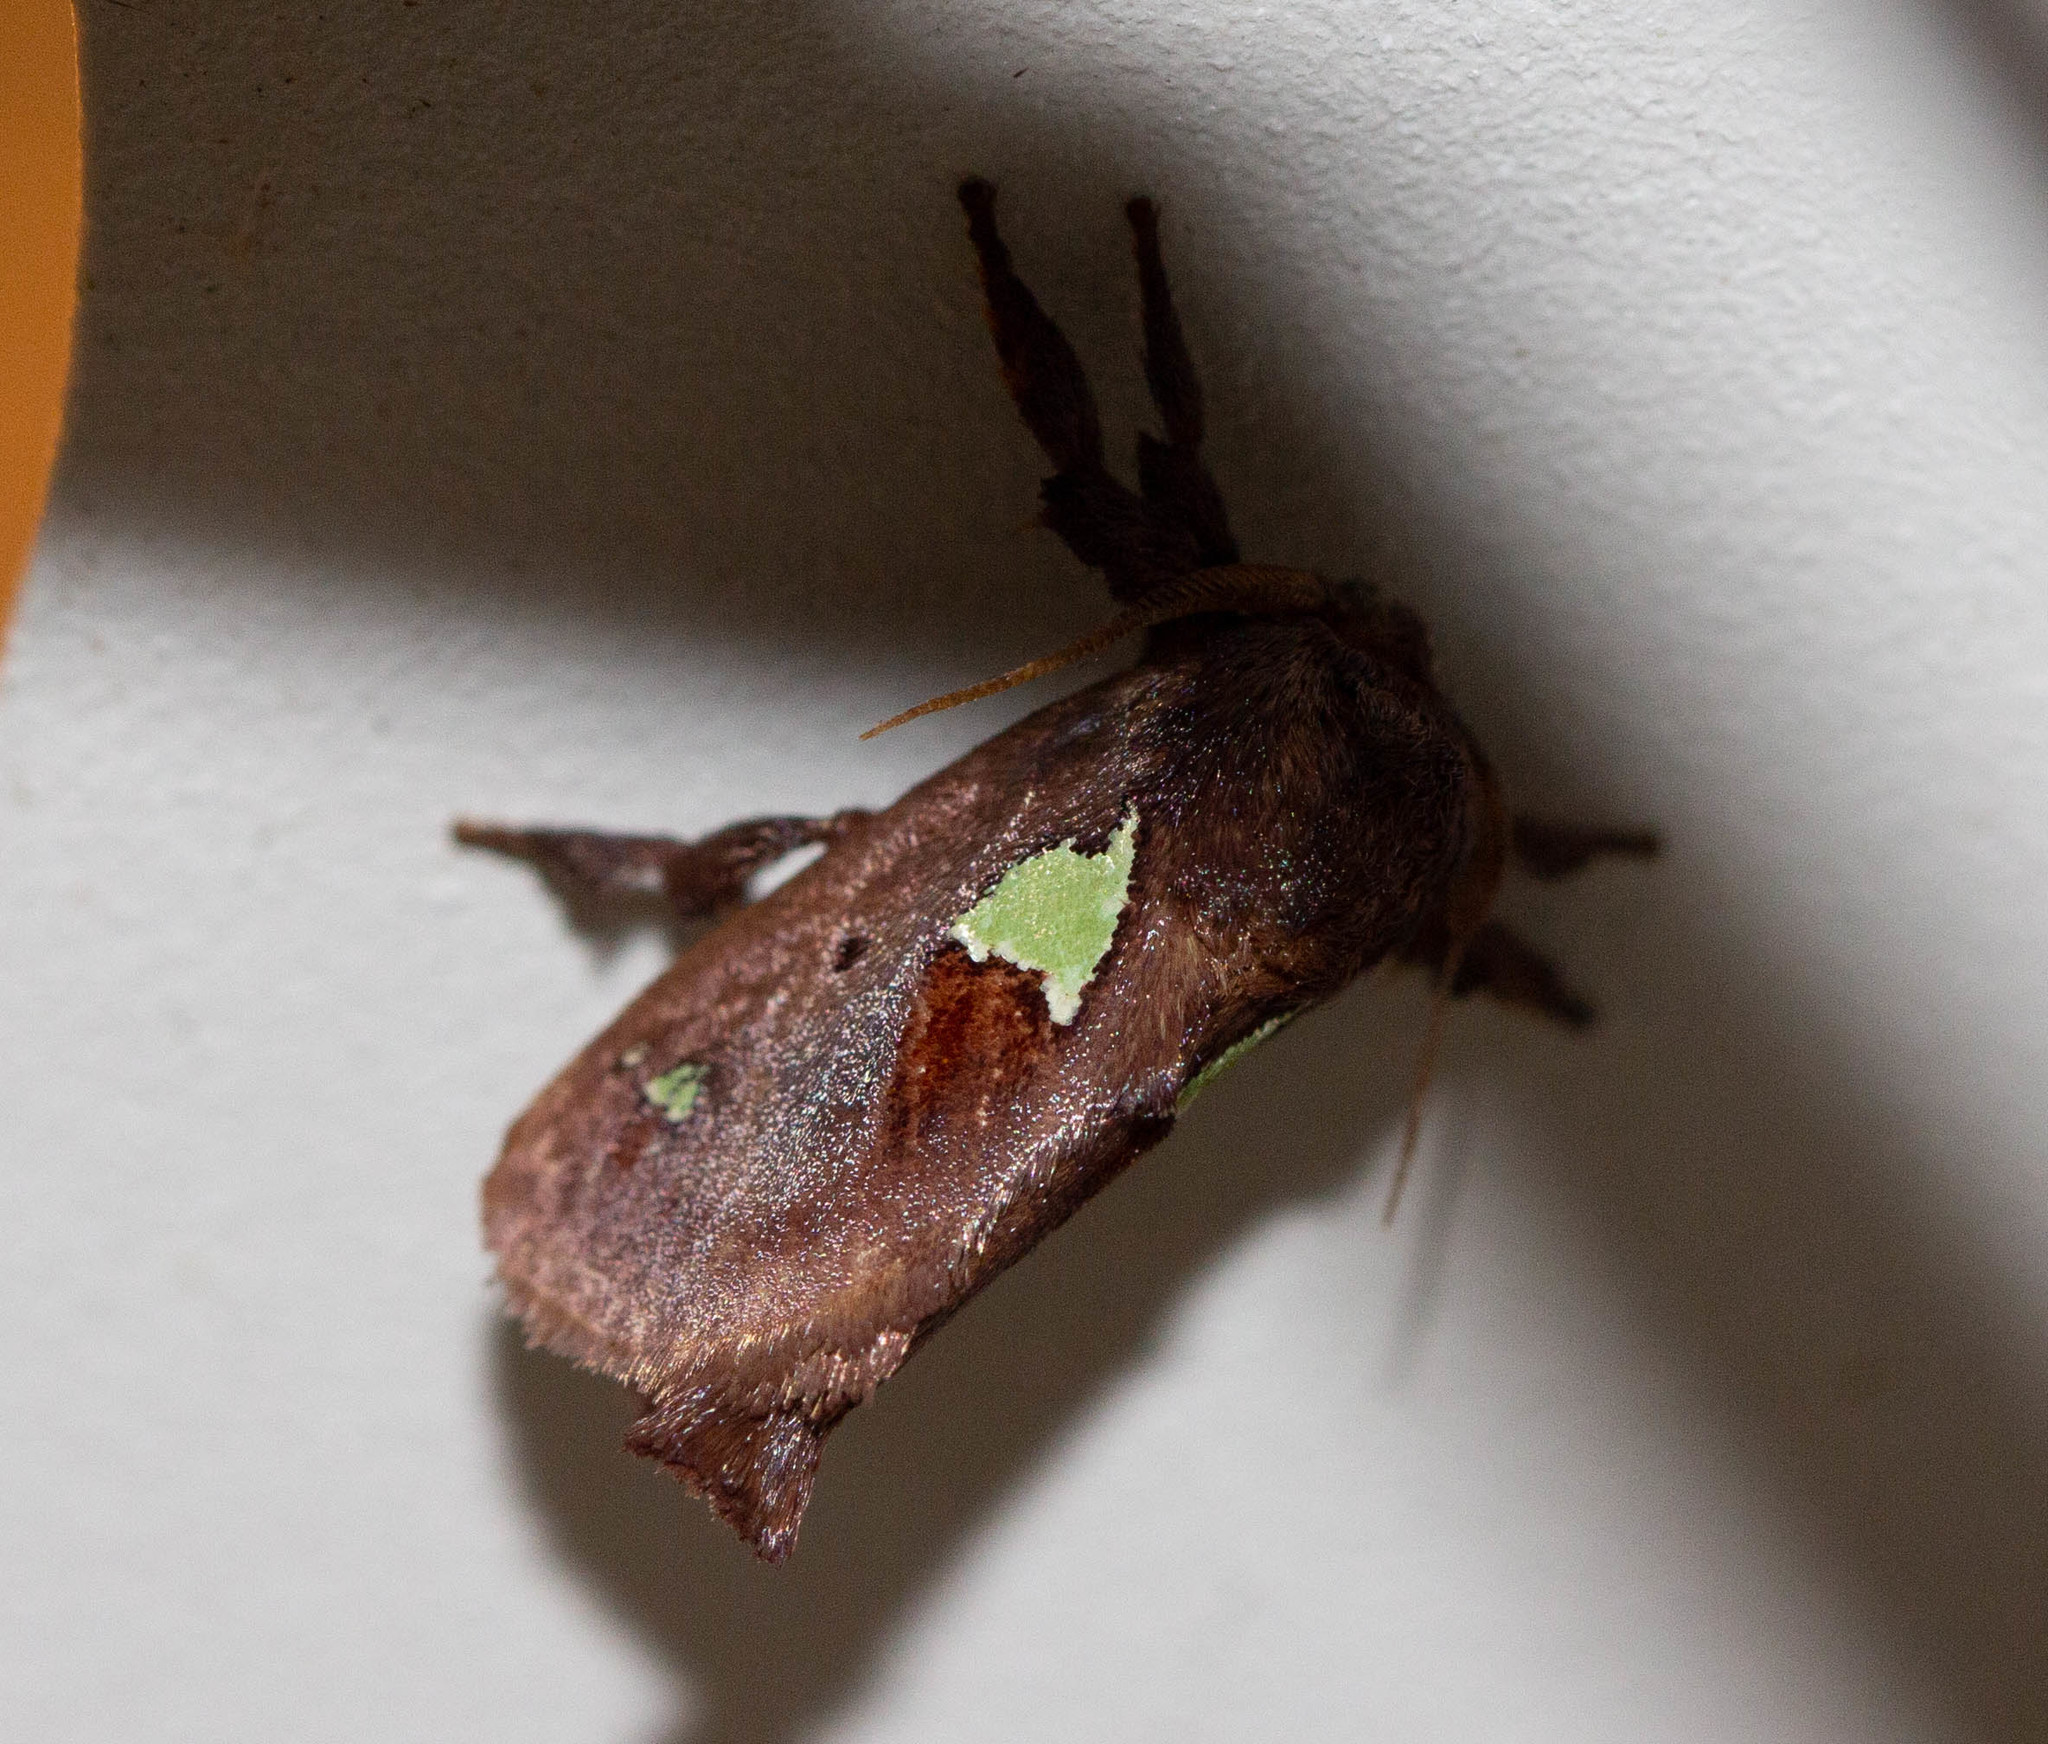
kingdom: Animalia
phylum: Arthropoda
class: Insecta
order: Lepidoptera
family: Limacodidae
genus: Euclea
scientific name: Euclea delphinii
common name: Spiny oak-slug moth
